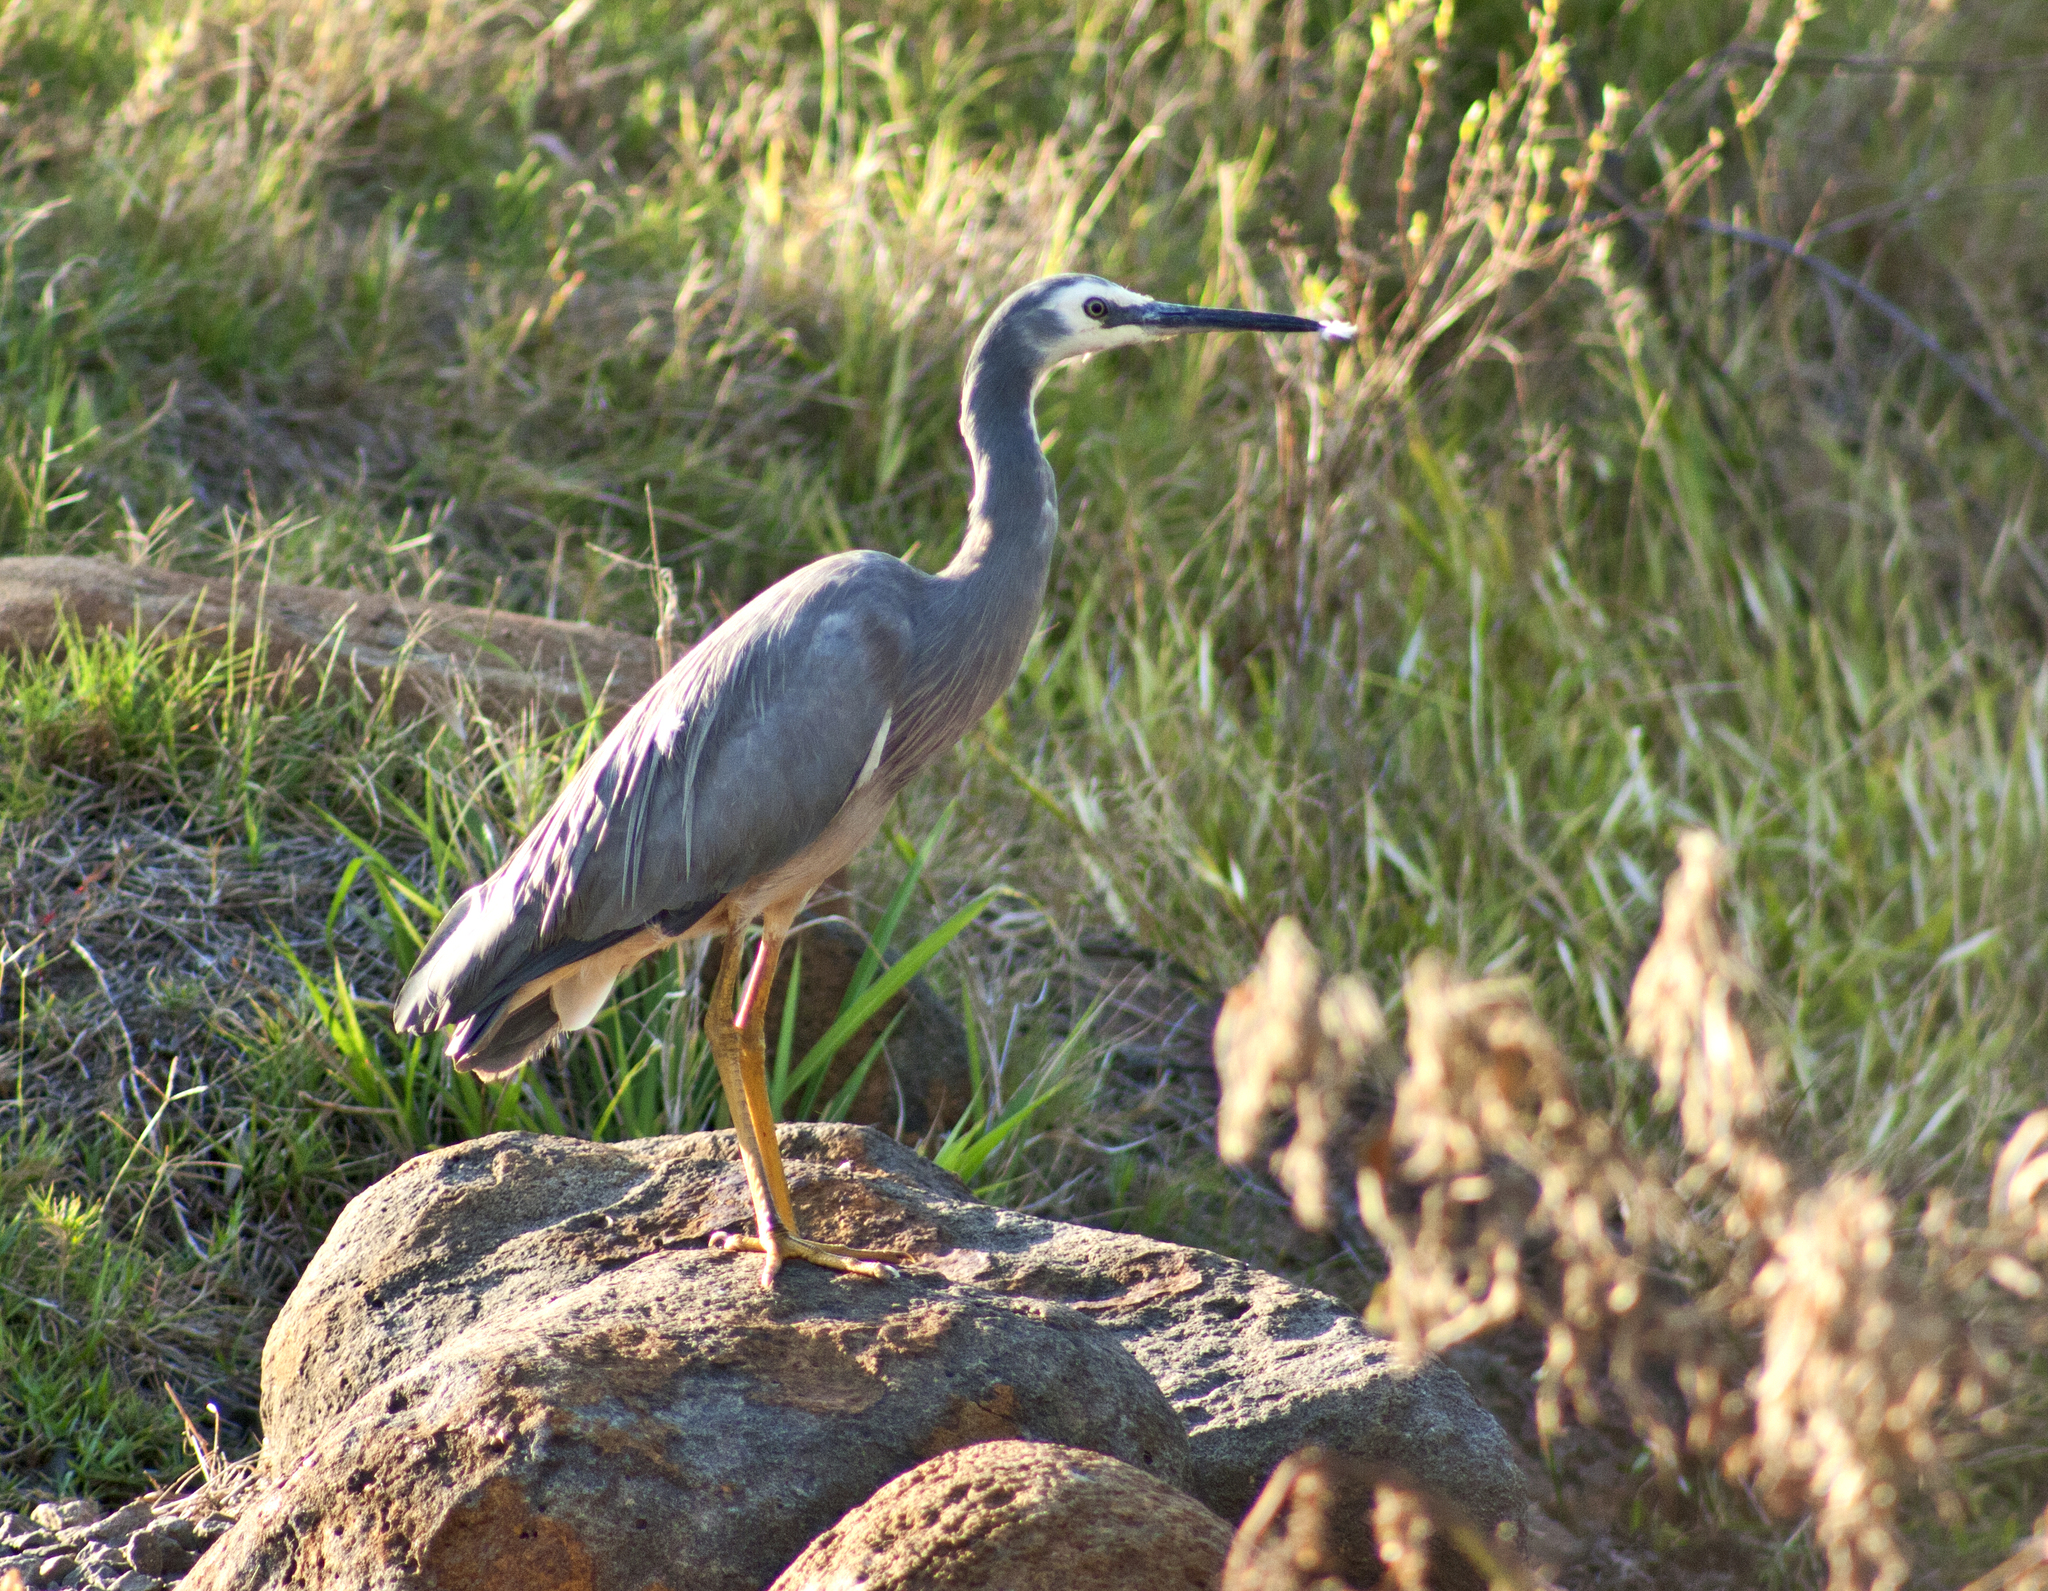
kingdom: Animalia
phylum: Chordata
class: Aves
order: Pelecaniformes
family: Ardeidae
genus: Egretta
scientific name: Egretta novaehollandiae
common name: White-faced heron
